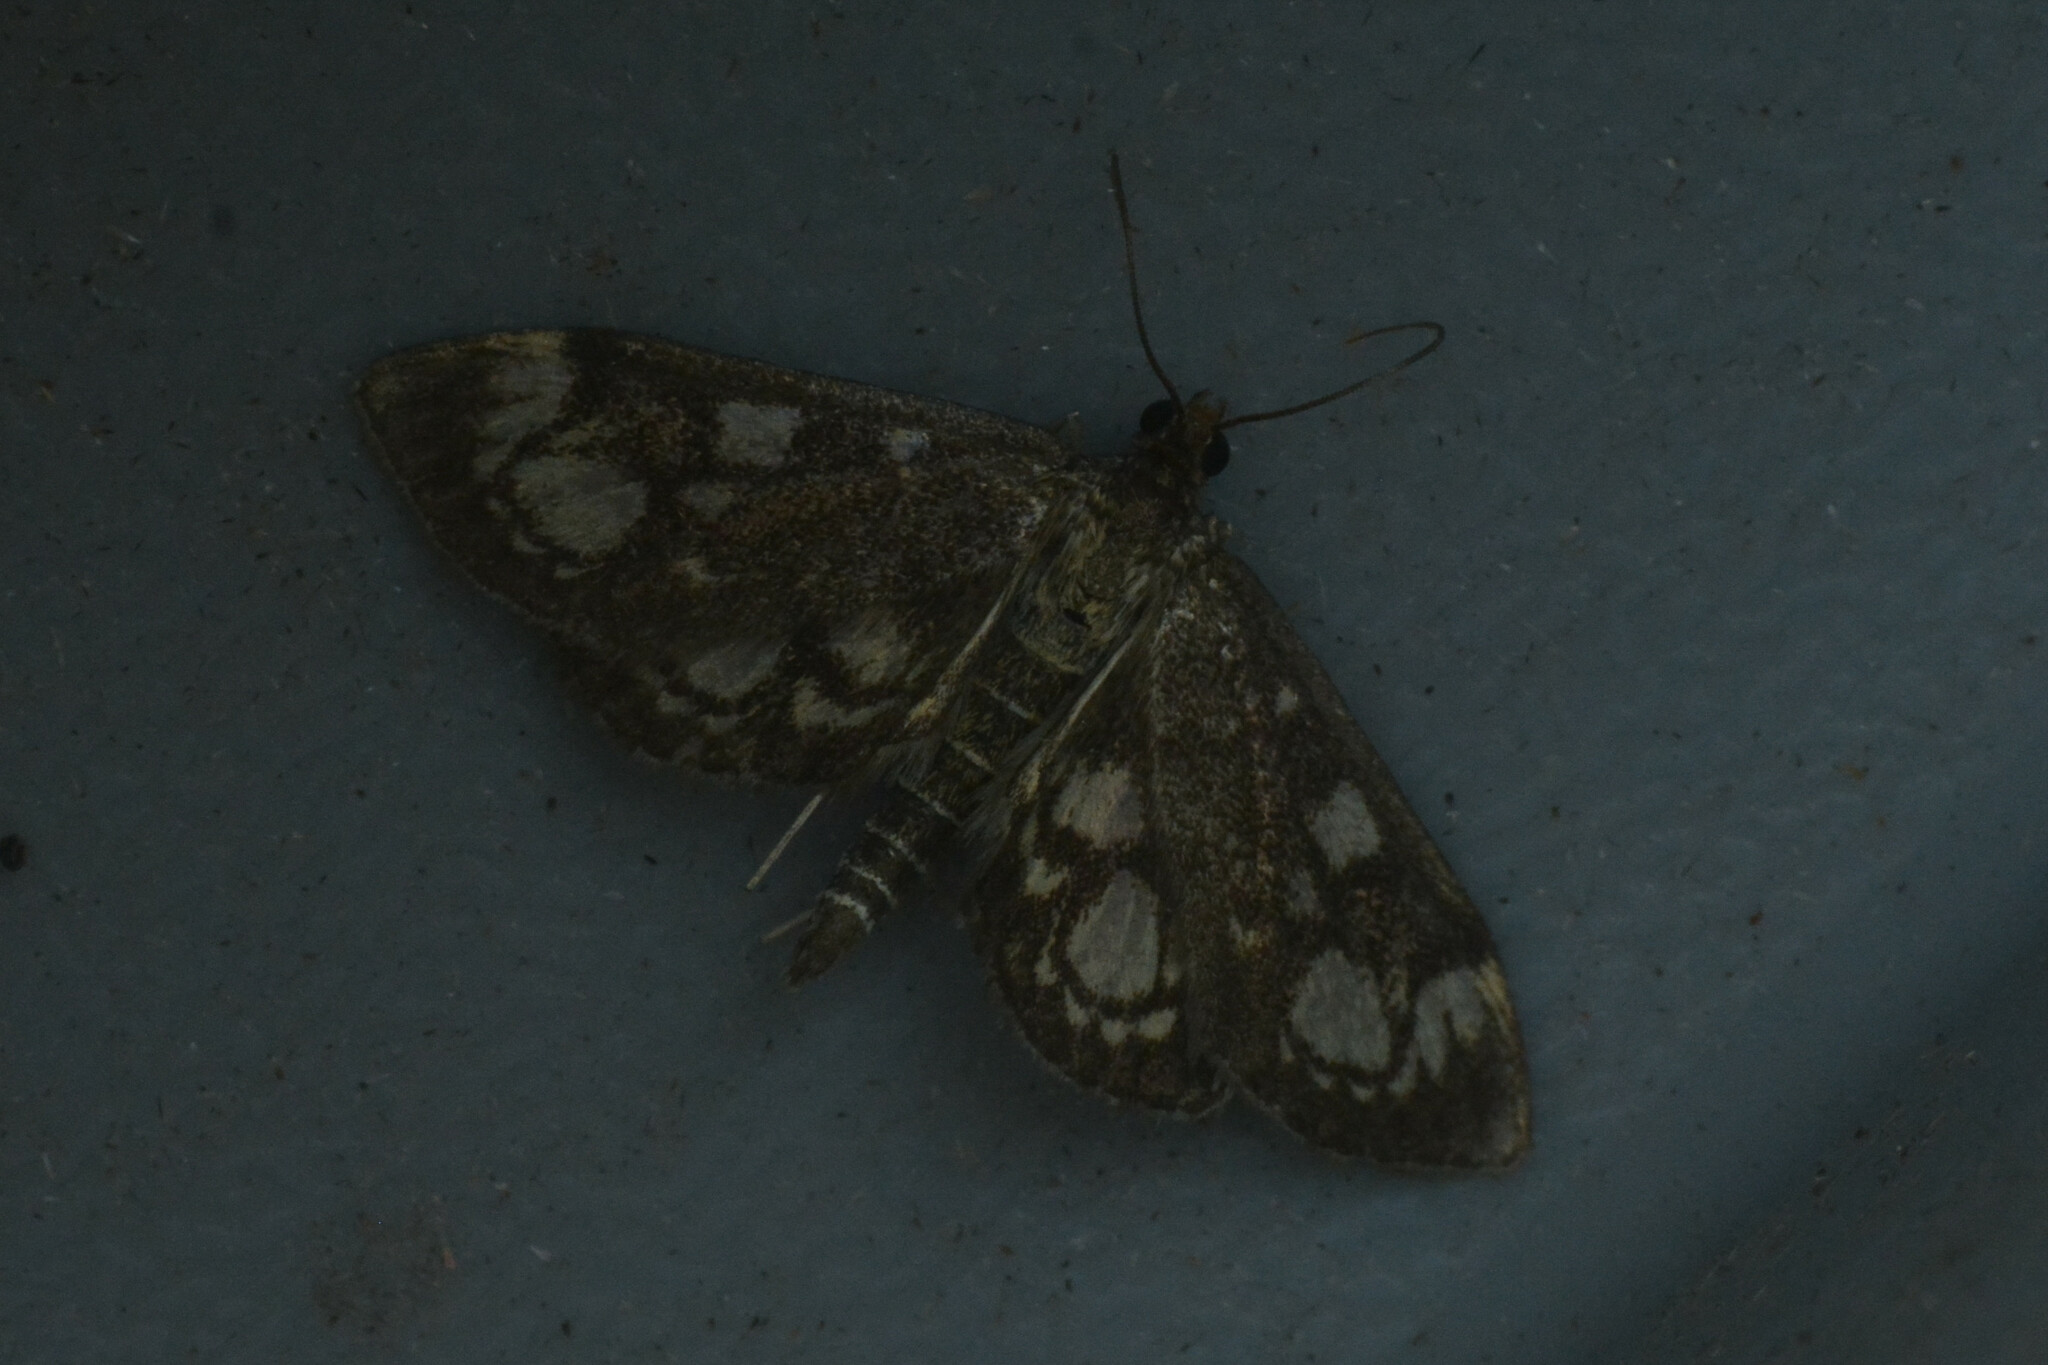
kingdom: Animalia
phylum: Arthropoda
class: Insecta
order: Lepidoptera
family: Crambidae
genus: Anania
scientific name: Anania coronata
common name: Elder pearl
